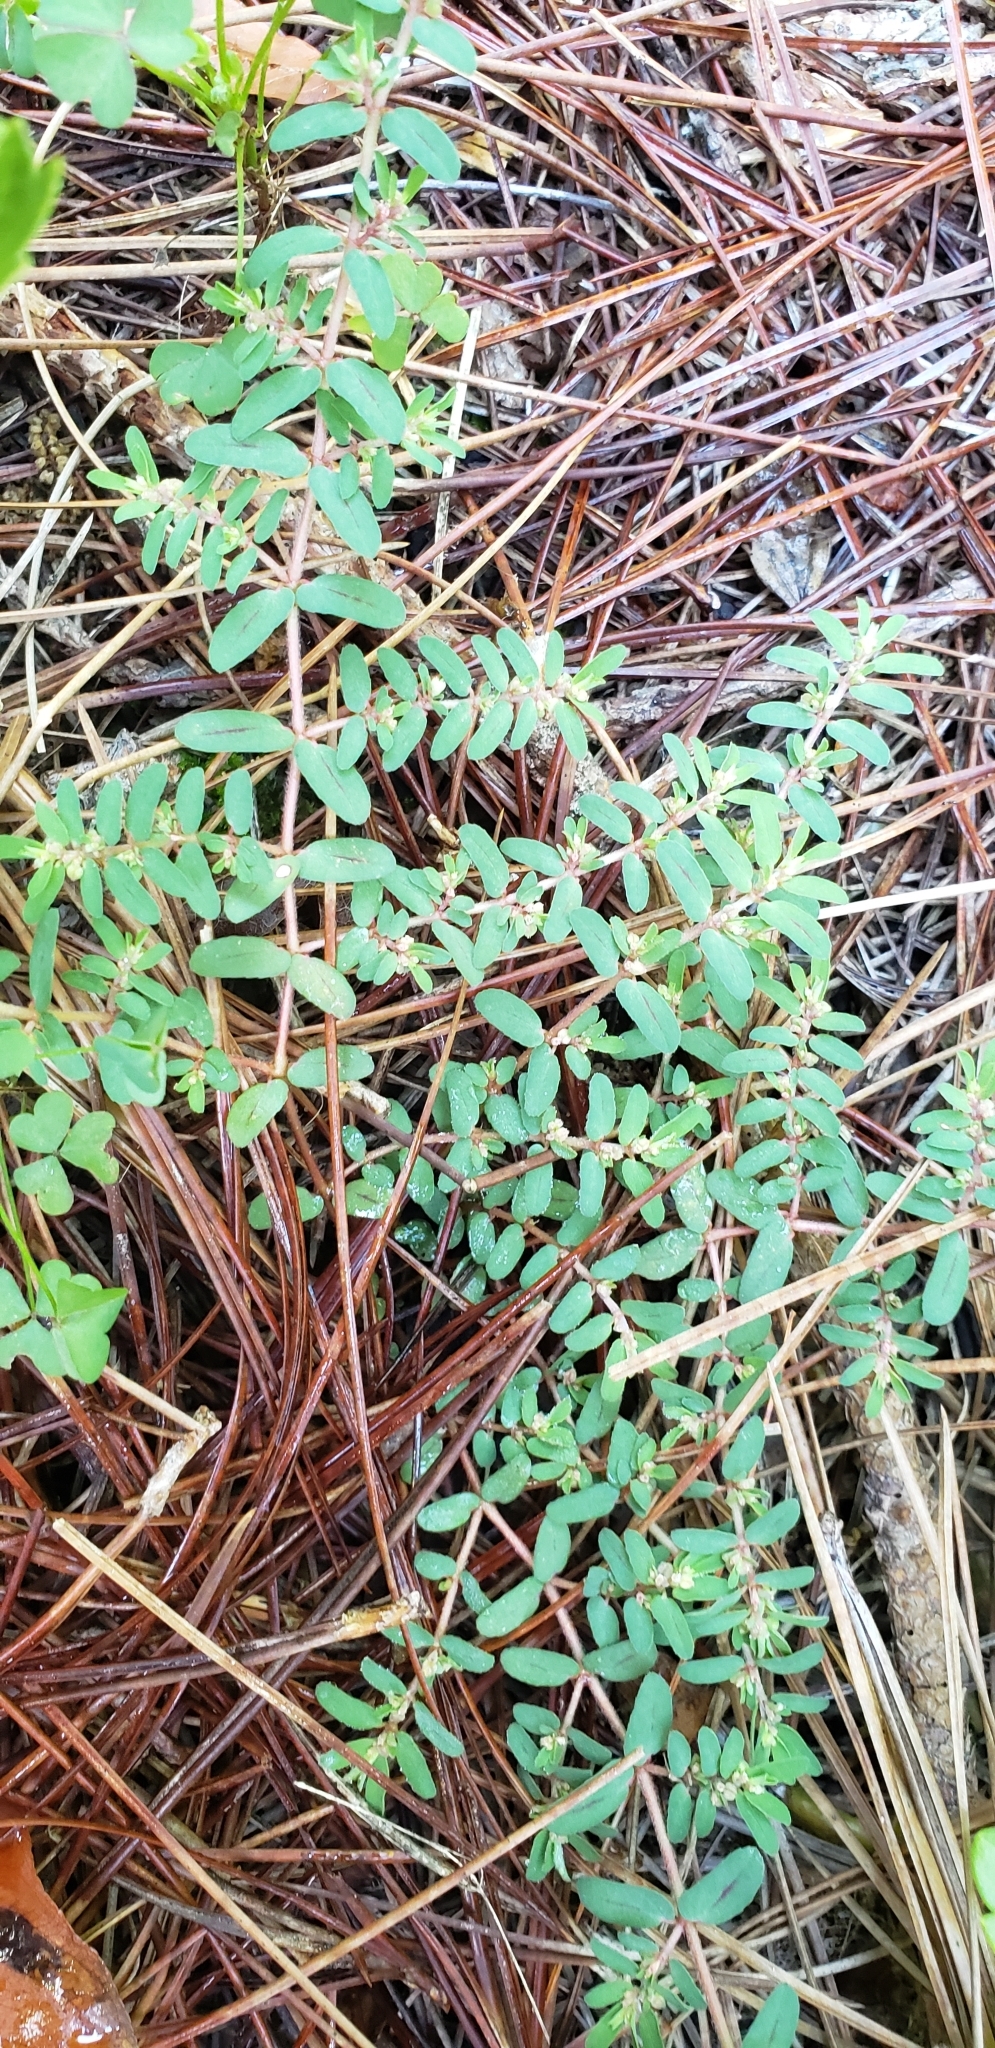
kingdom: Plantae
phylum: Tracheophyta
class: Magnoliopsida
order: Malpighiales
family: Euphorbiaceae
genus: Euphorbia
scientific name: Euphorbia maculata
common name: Spotted spurge
